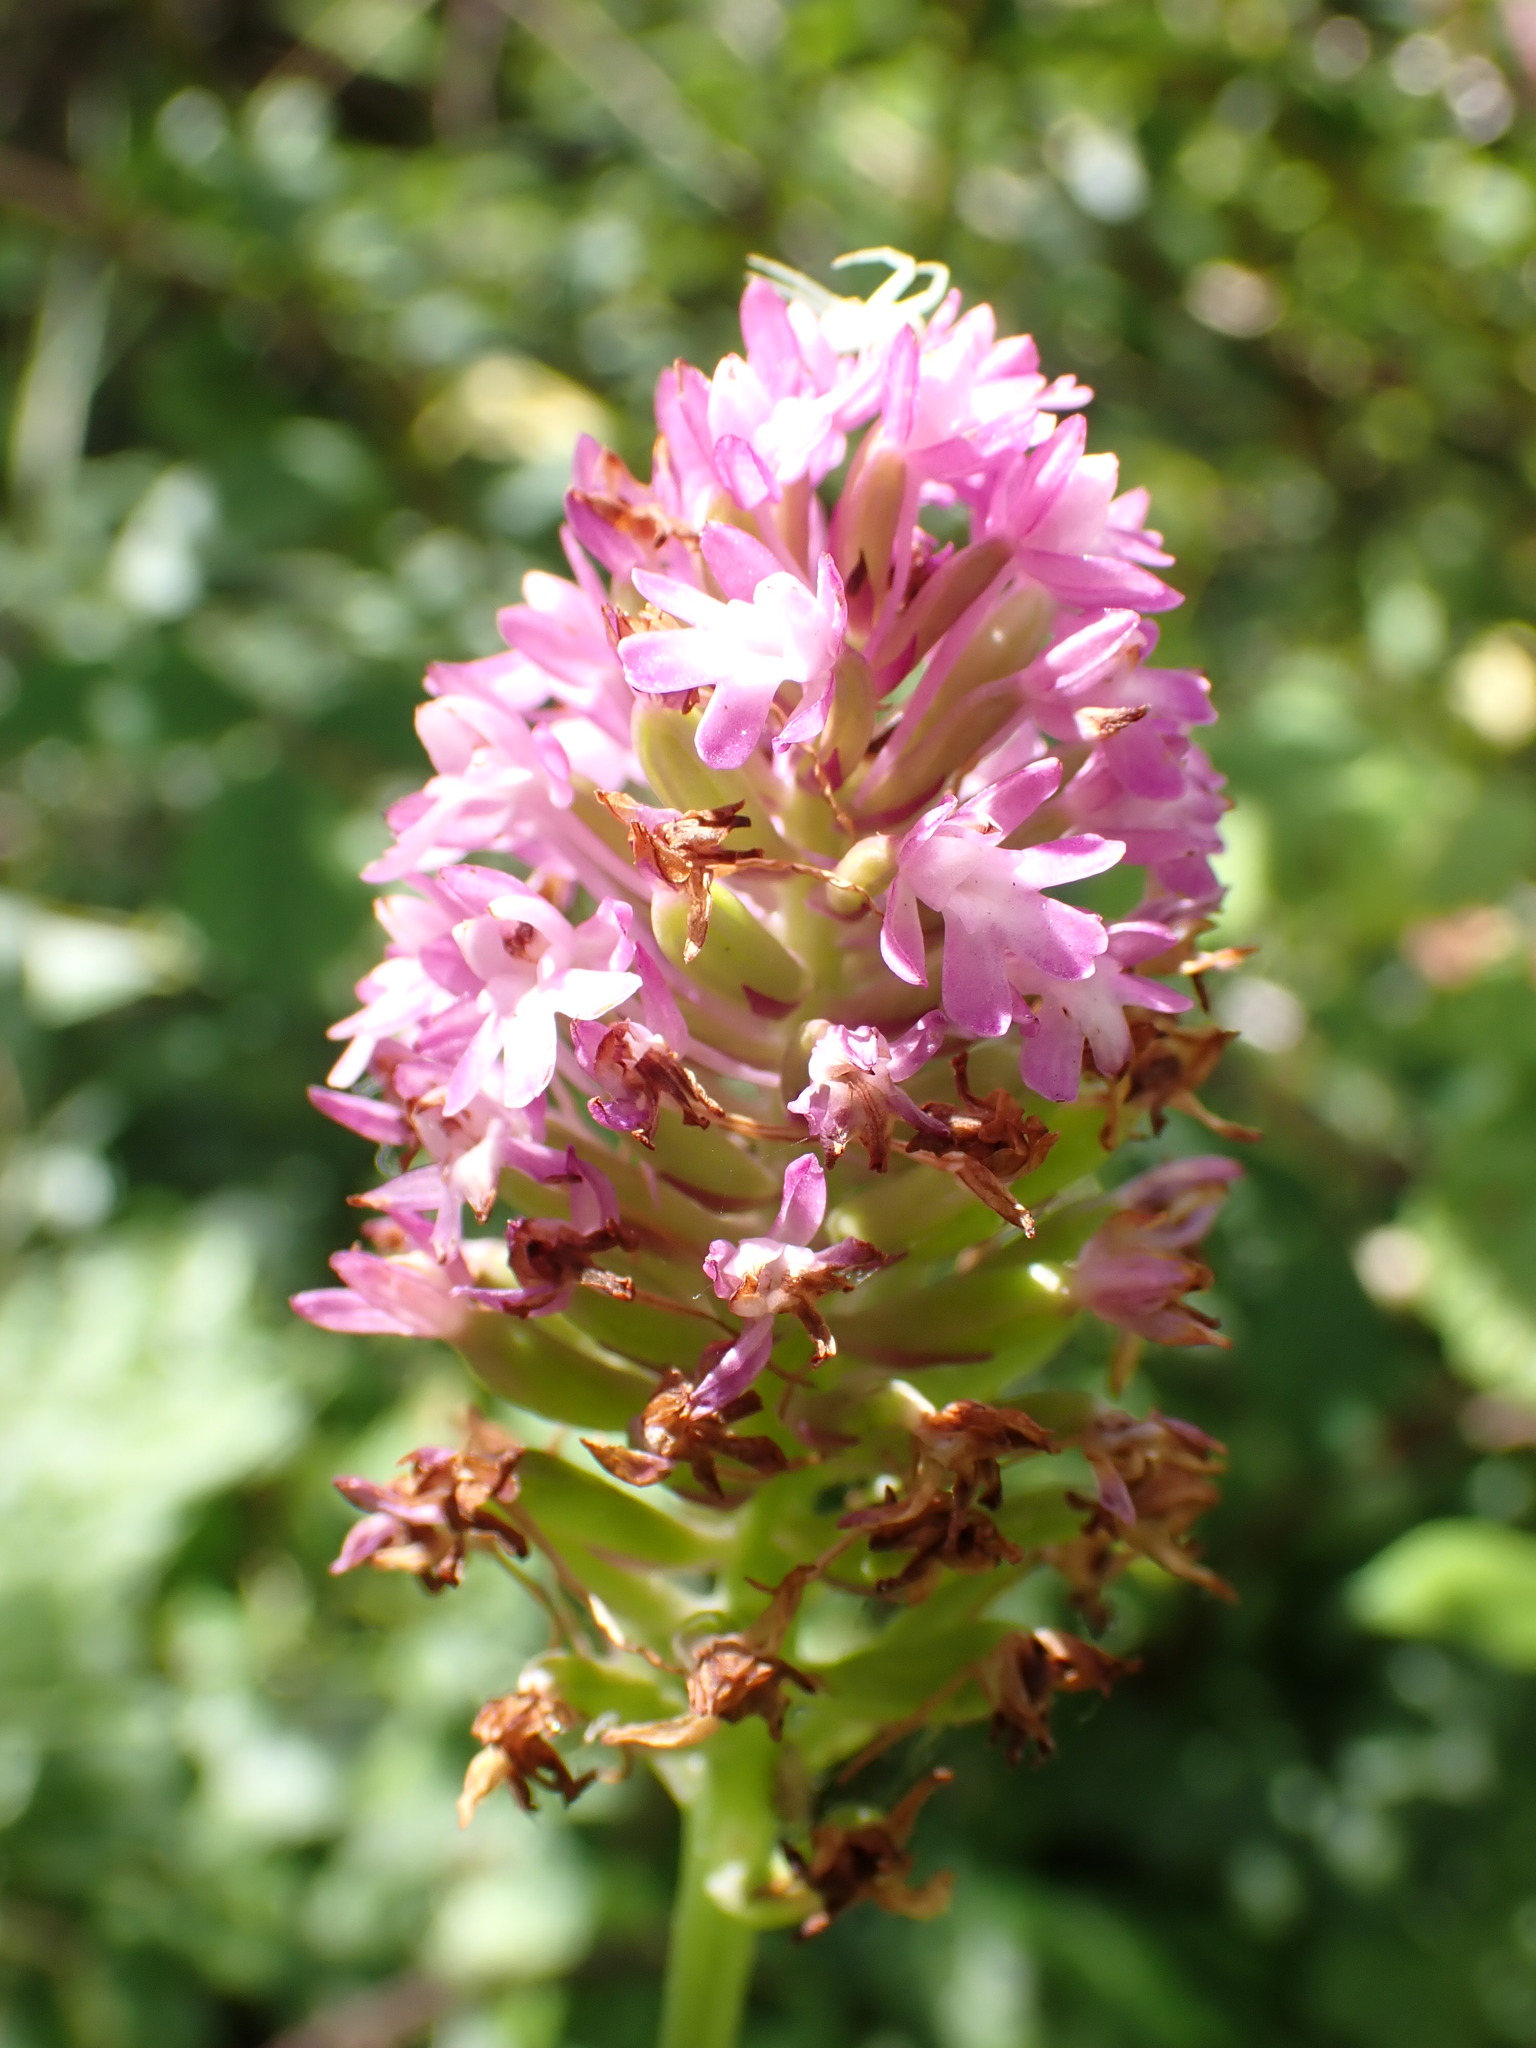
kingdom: Plantae
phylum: Tracheophyta
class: Liliopsida
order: Asparagales
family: Orchidaceae
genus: Anacamptis
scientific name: Anacamptis pyramidalis
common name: Pyramidal orchid
